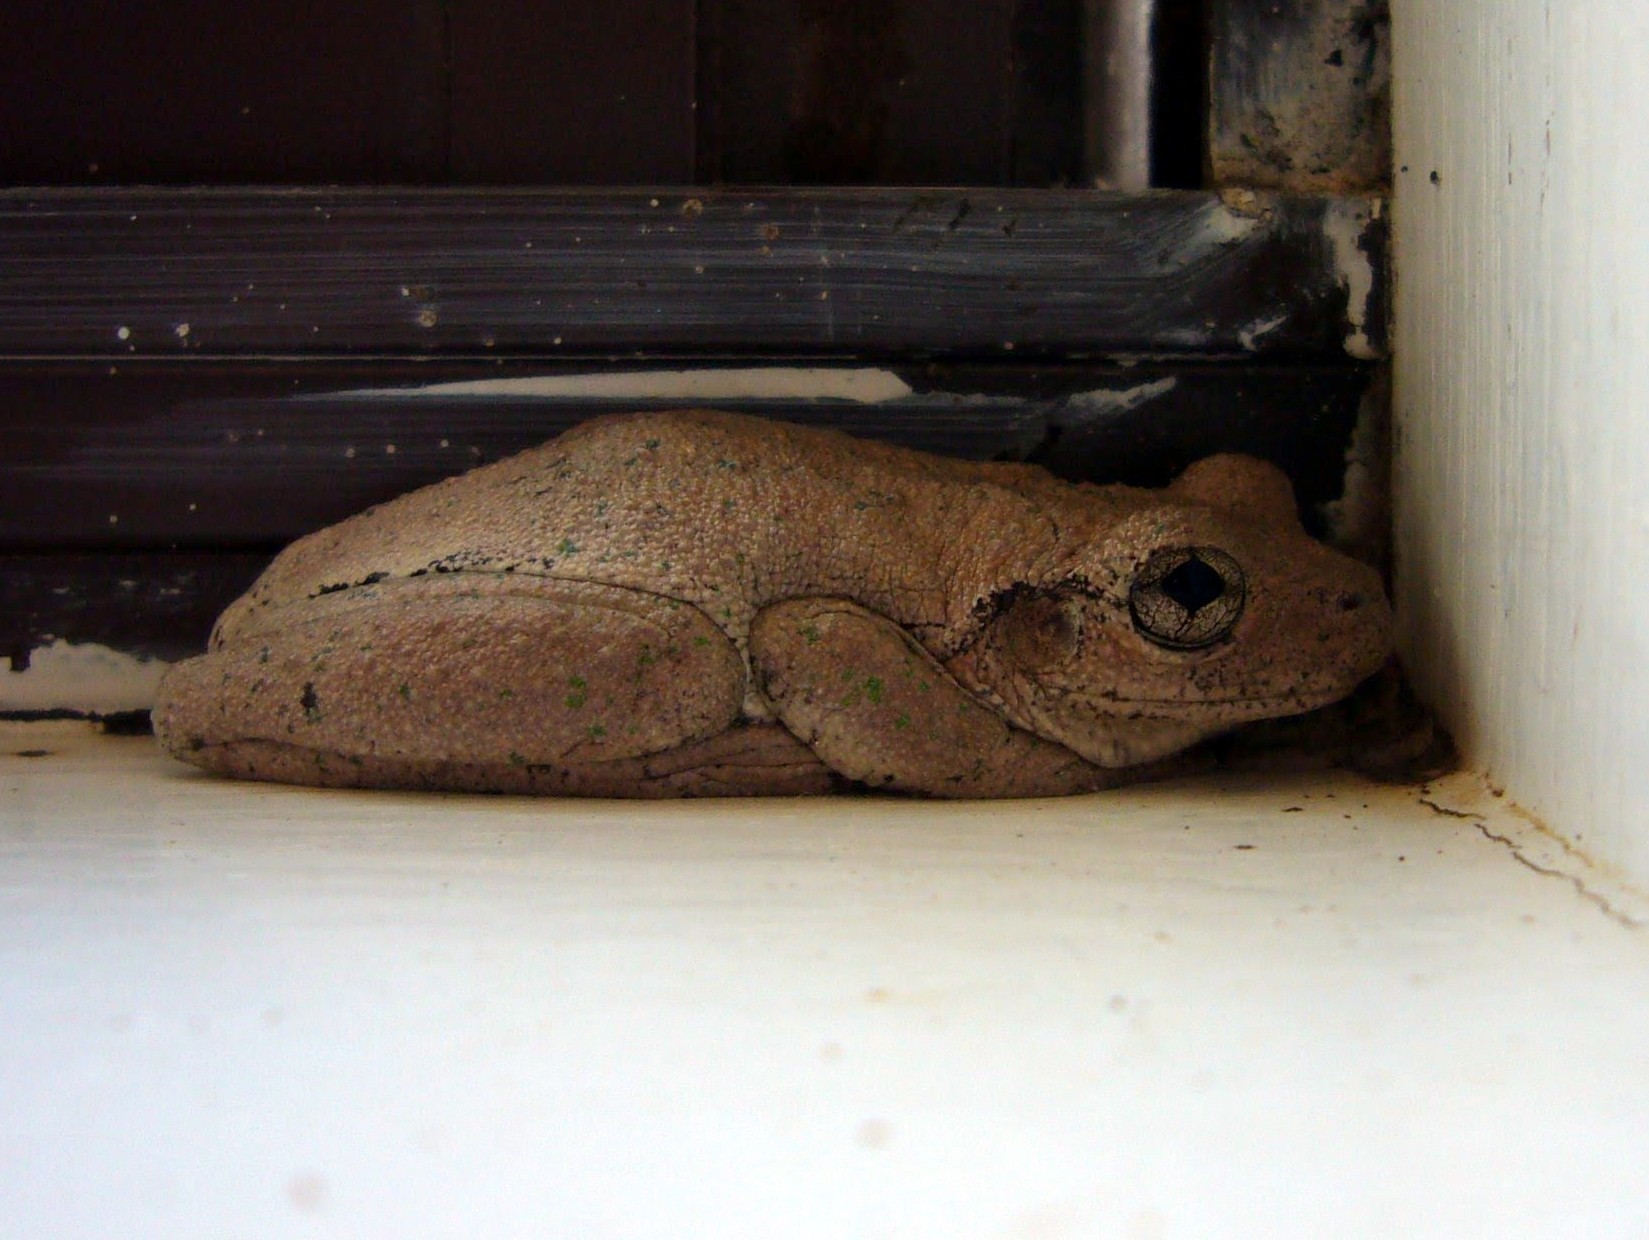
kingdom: Animalia
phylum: Chordata
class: Amphibia
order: Anura
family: Pelodryadidae
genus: Litoria
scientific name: Litoria peronii
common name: Emerald spotted treefrog
